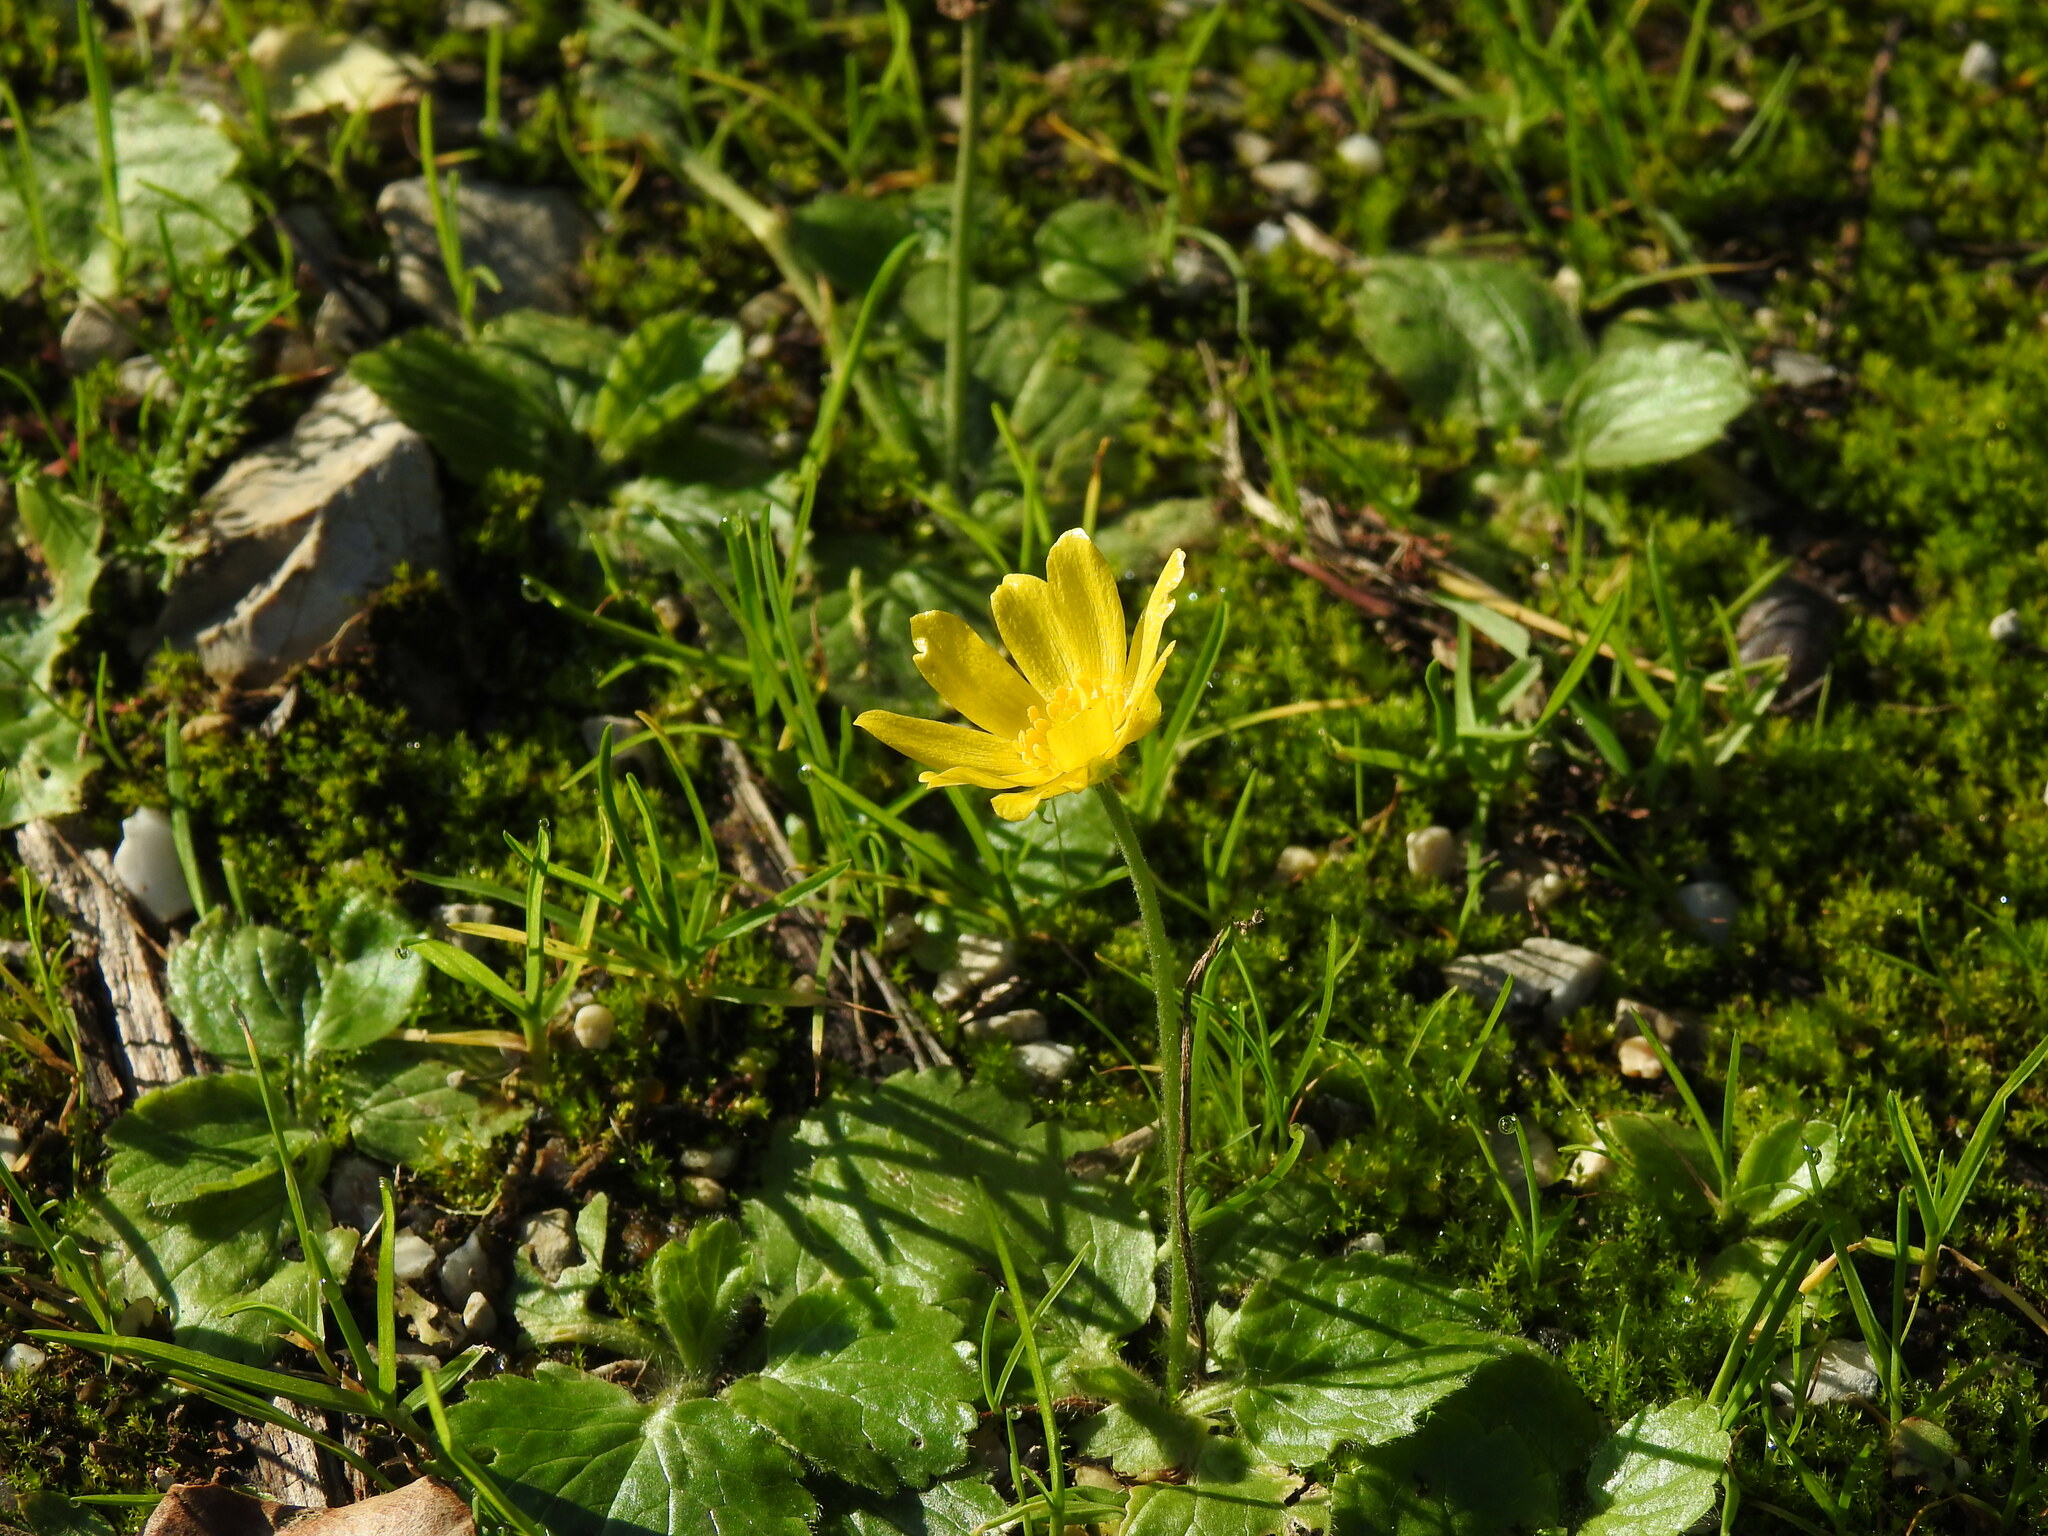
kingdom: Plantae
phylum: Tracheophyta
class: Magnoliopsida
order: Ranunculales
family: Ranunculaceae
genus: Ranunculus
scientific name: Ranunculus bullatus
